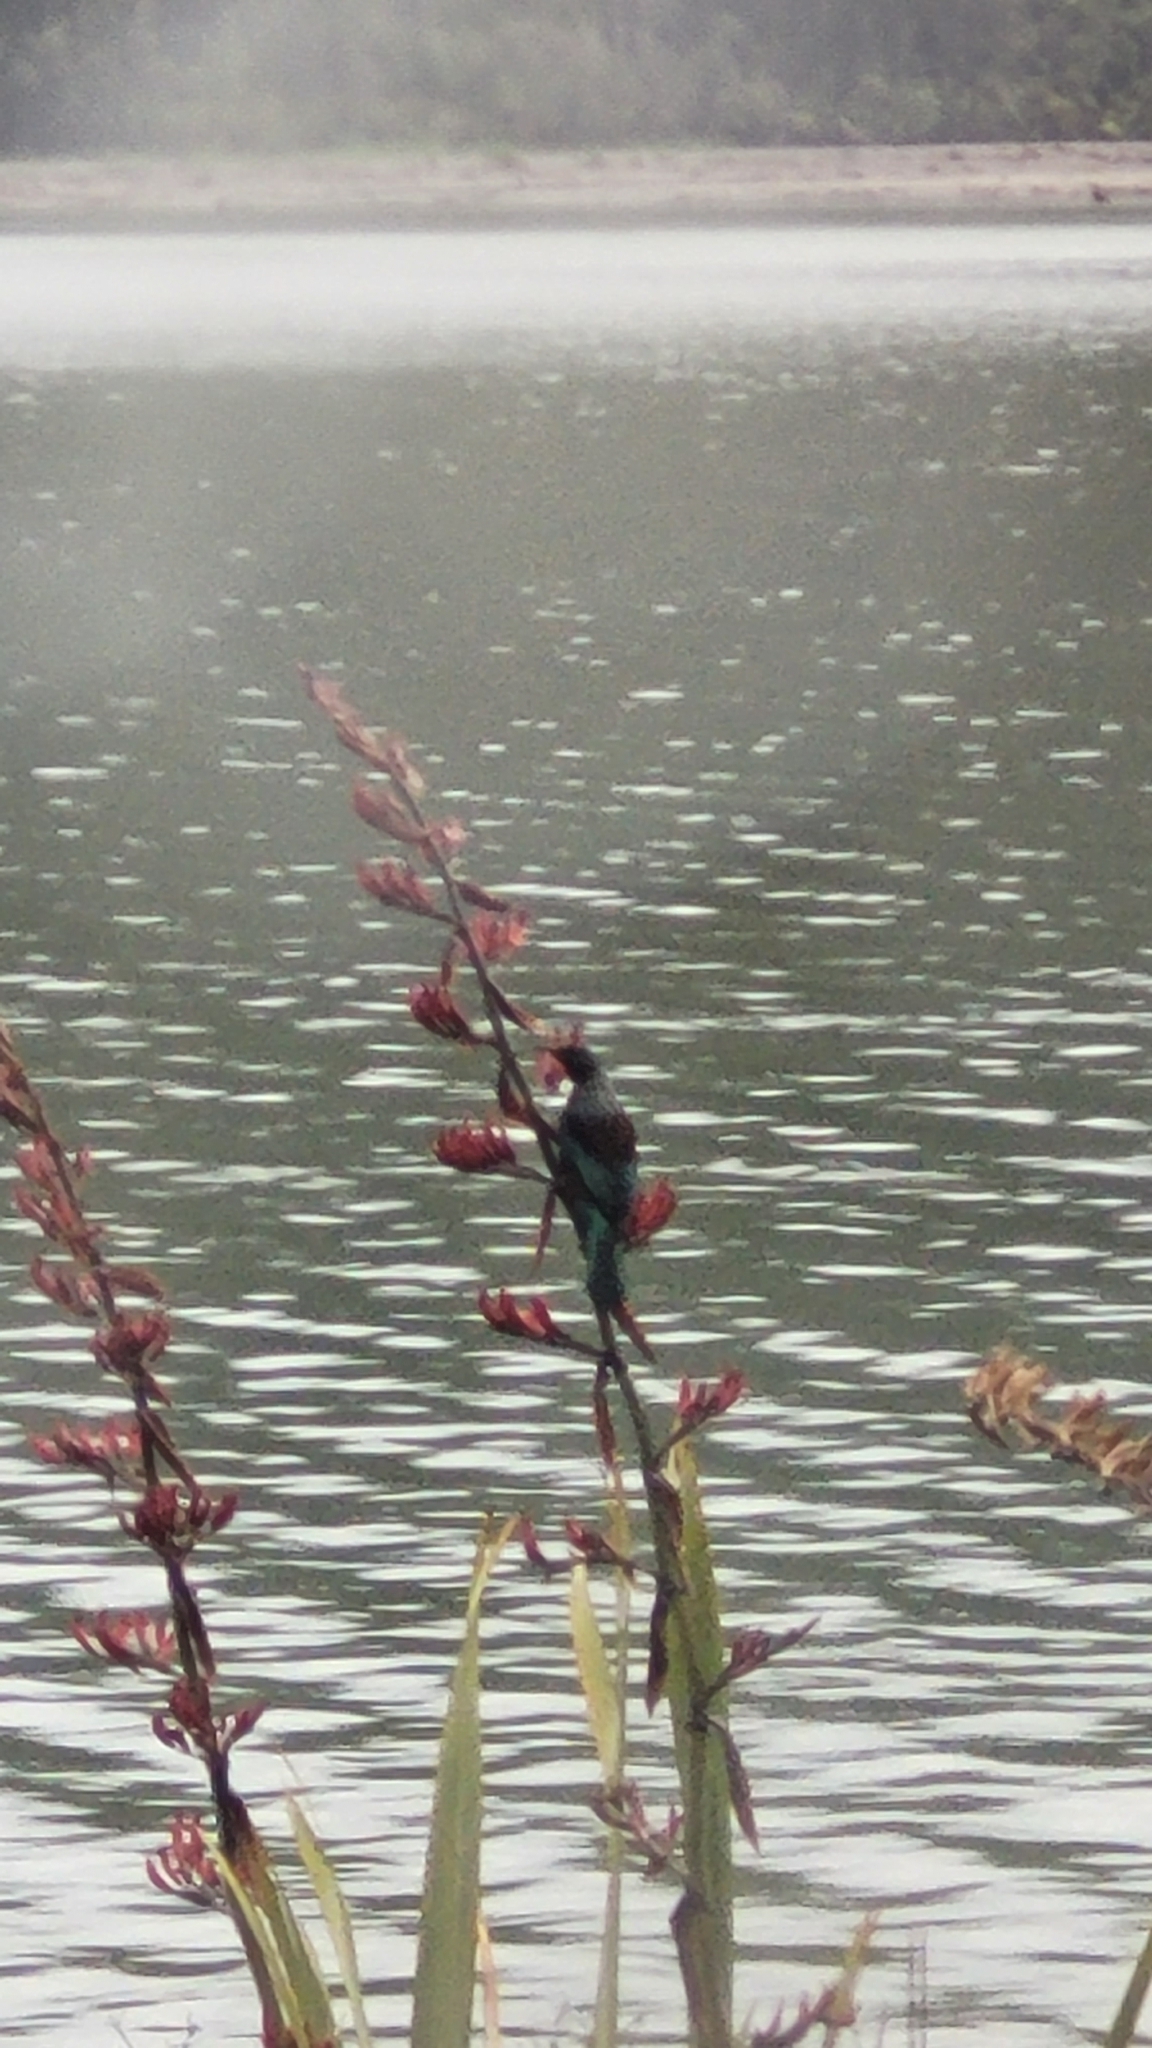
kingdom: Animalia
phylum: Chordata
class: Aves
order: Passeriformes
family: Meliphagidae
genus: Prosthemadera
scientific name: Prosthemadera novaeseelandiae
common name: Tui
